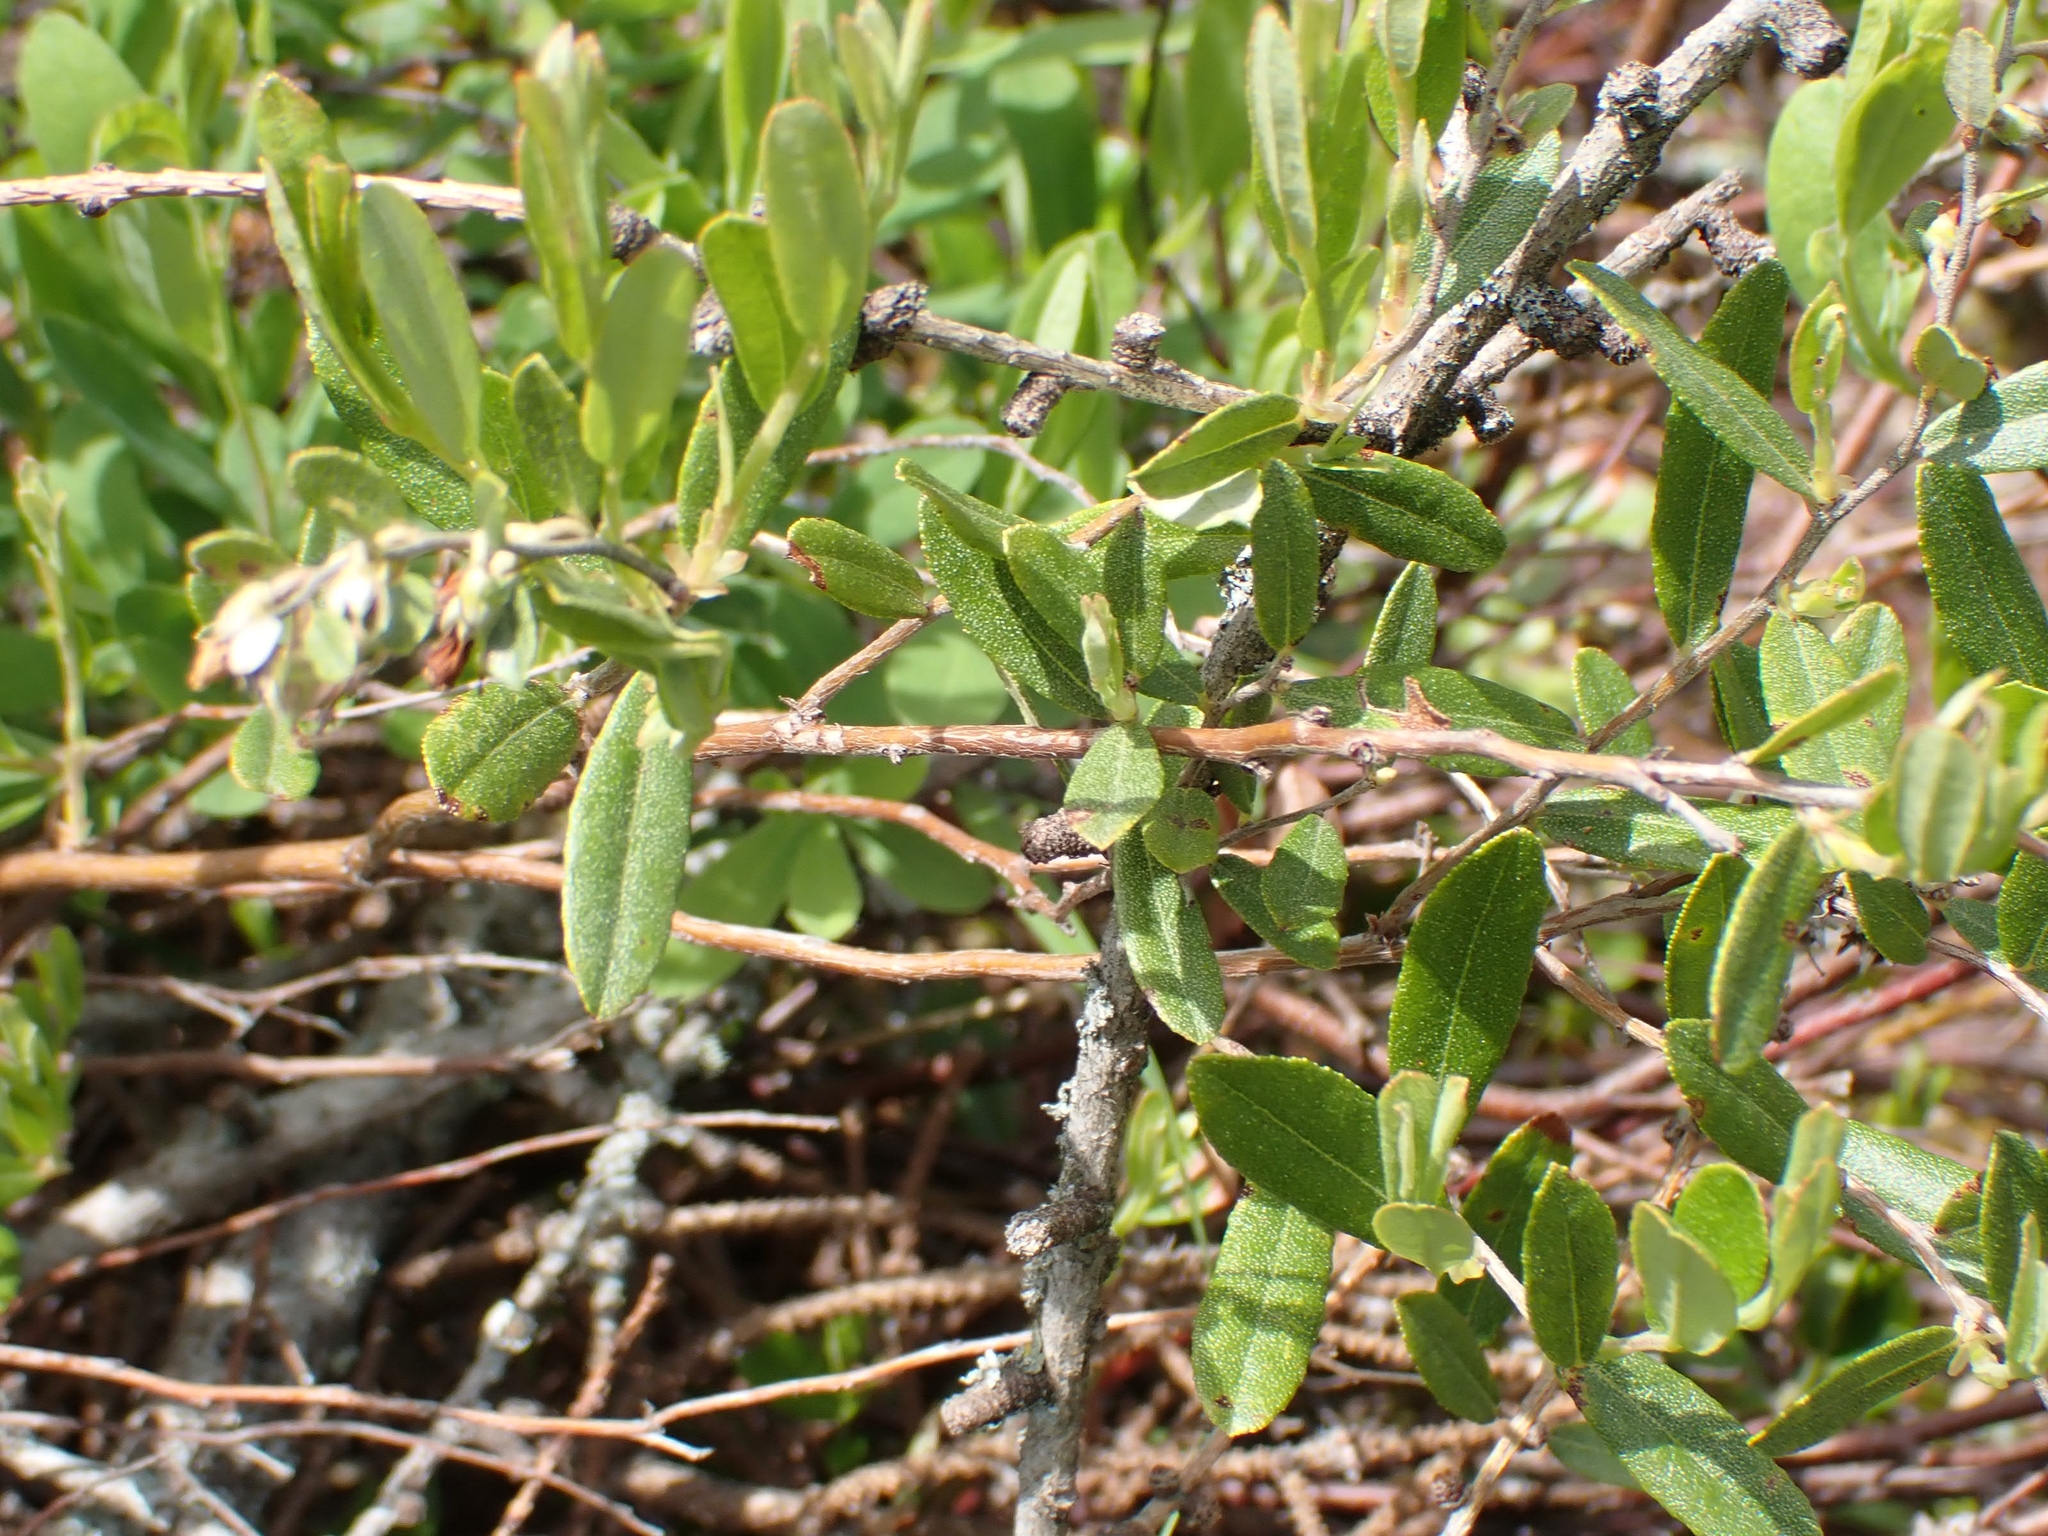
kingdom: Plantae
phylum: Tracheophyta
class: Magnoliopsida
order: Ericales
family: Ericaceae
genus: Chamaedaphne
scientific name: Chamaedaphne calyculata
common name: Leatherleaf
